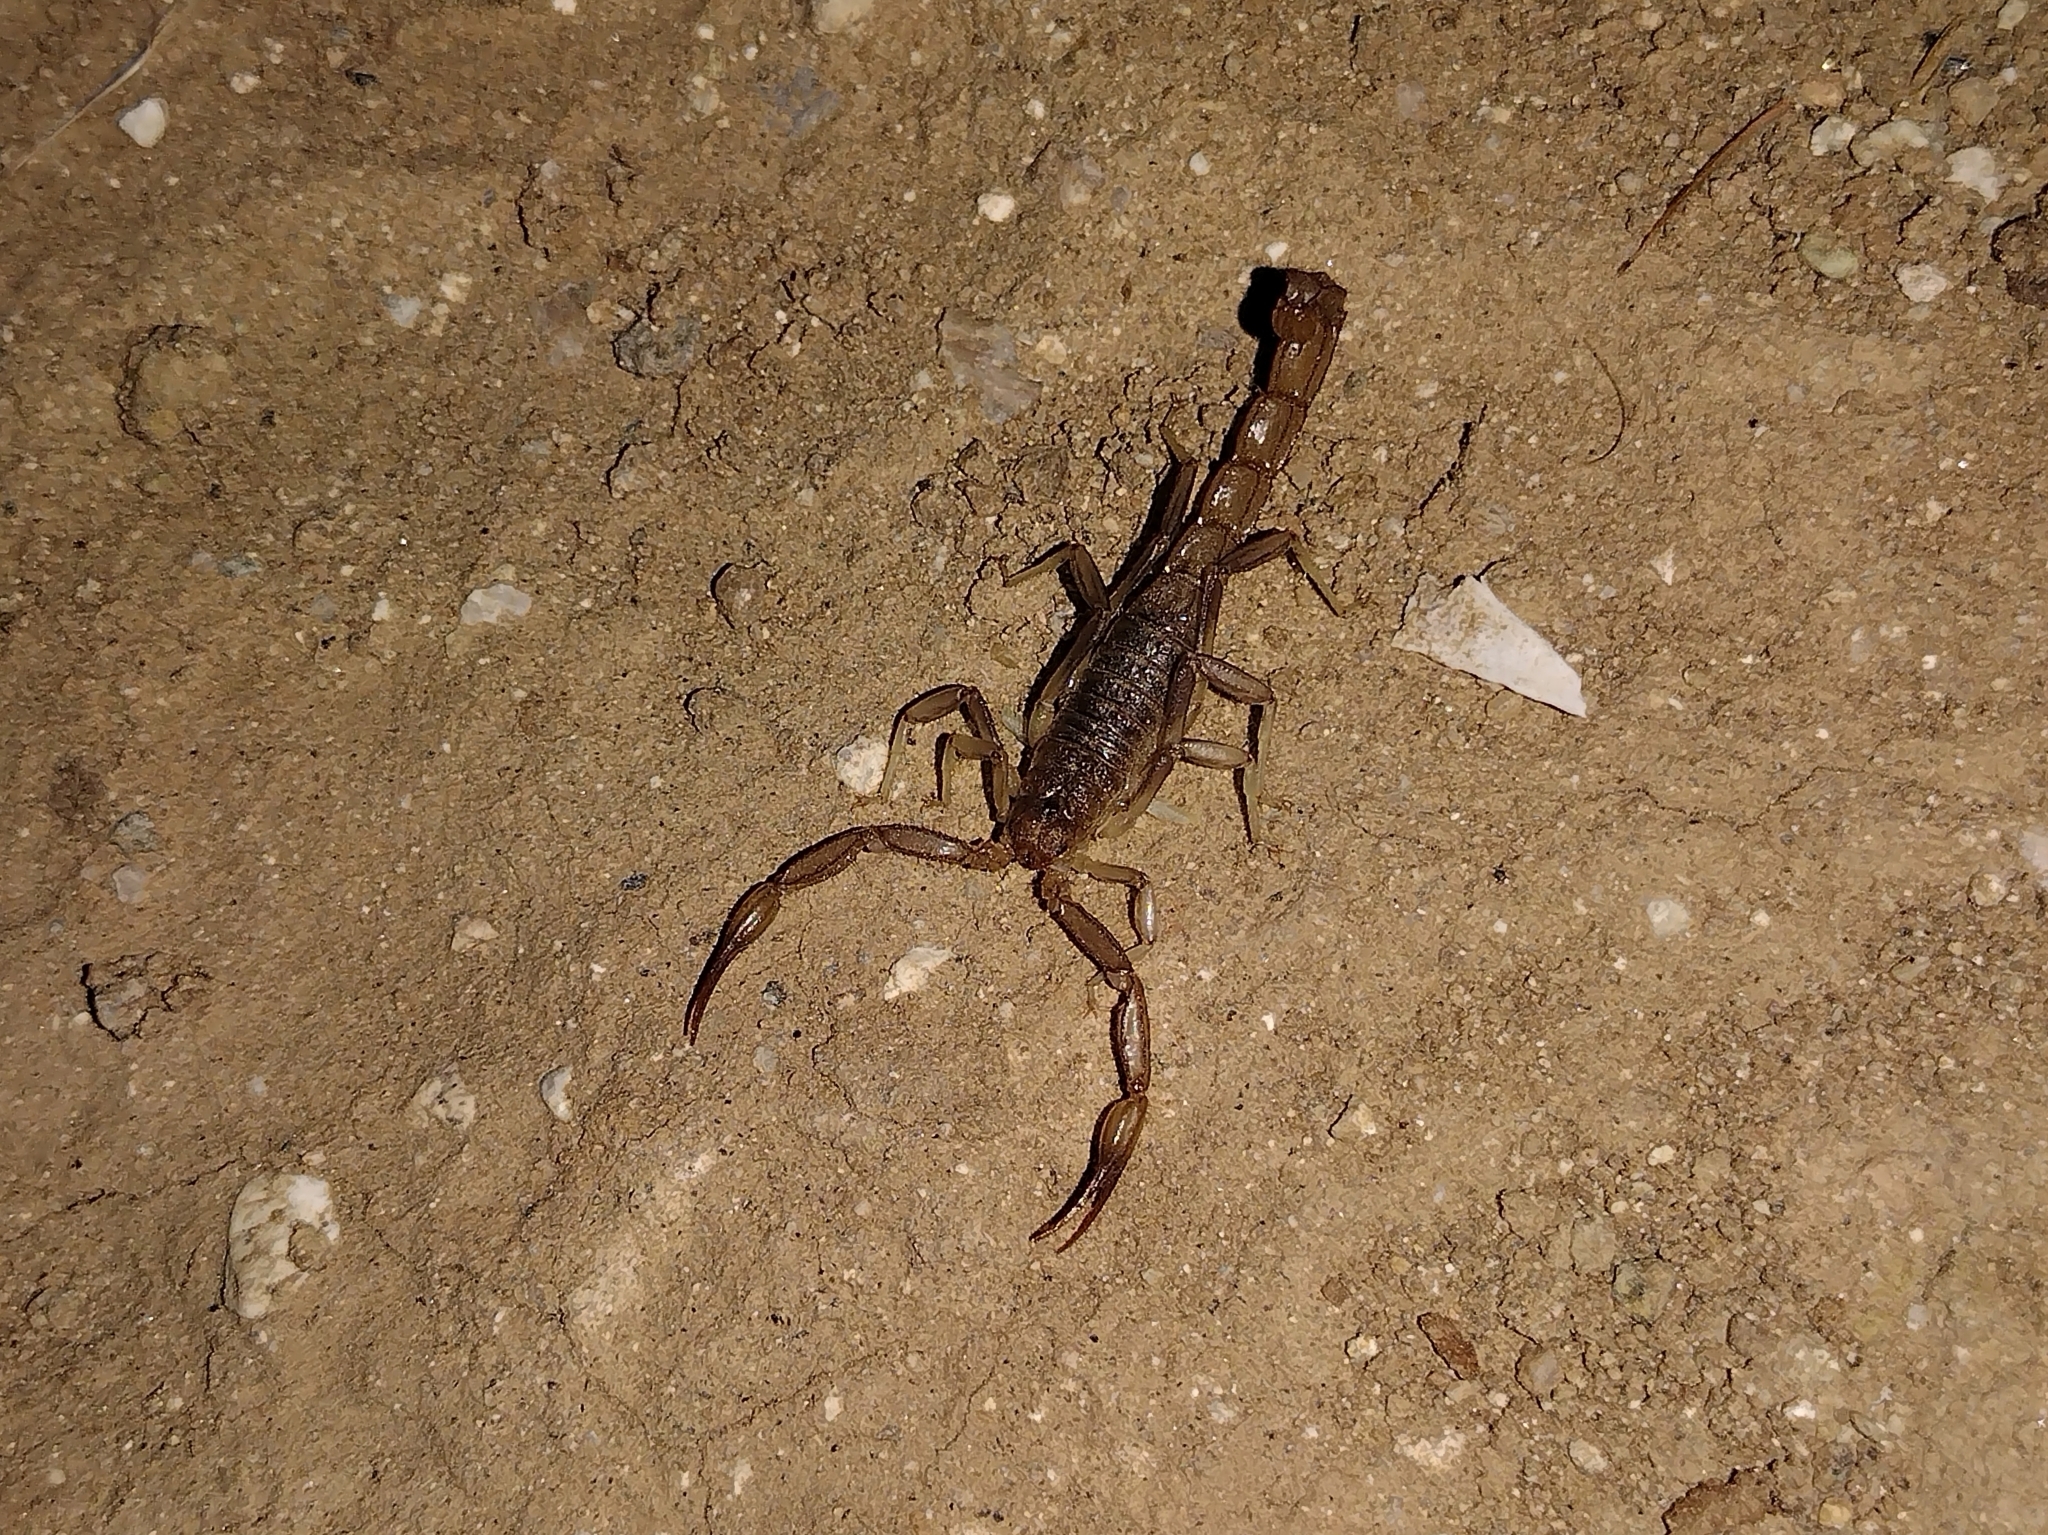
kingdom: Animalia
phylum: Arthropoda
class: Arachnida
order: Scorpiones
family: Vaejovidae
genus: Paravaejovis
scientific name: Paravaejovis puritanus
